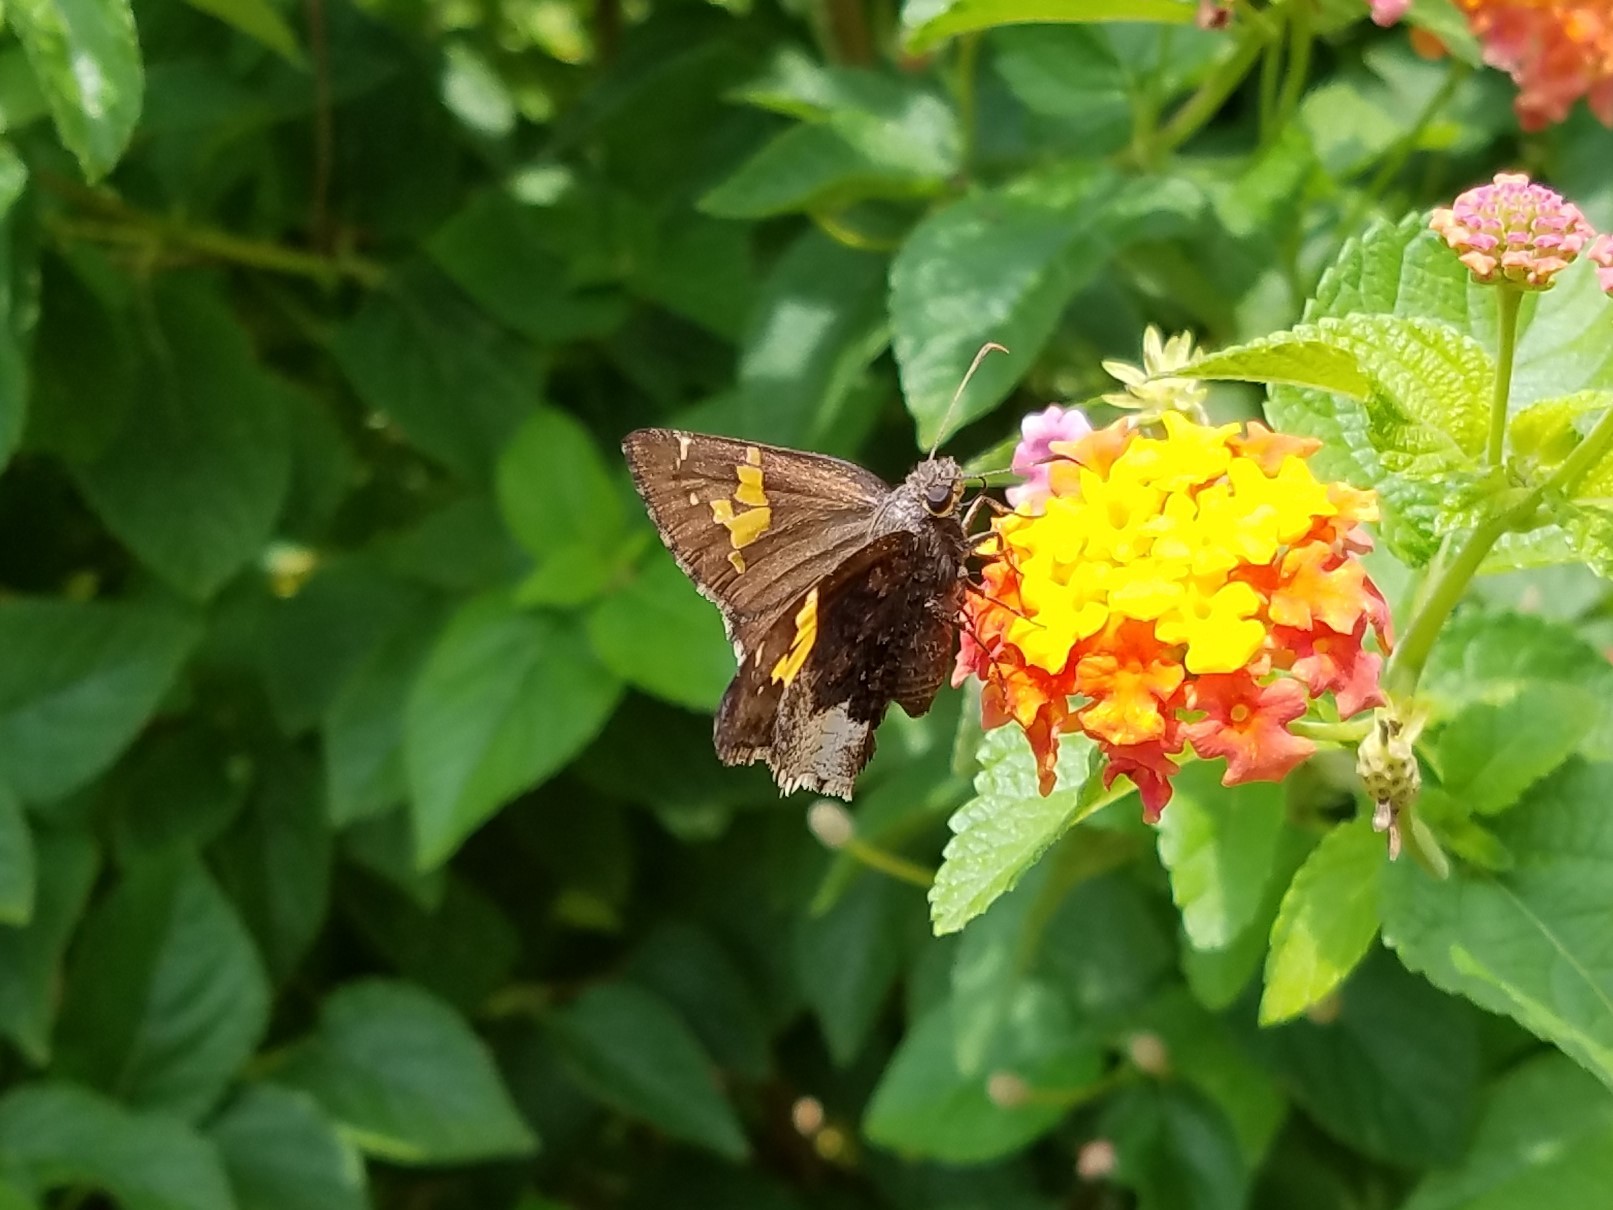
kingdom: Animalia
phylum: Arthropoda
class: Insecta
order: Lepidoptera
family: Hesperiidae
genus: Thorybes
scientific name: Thorybes lyciades
